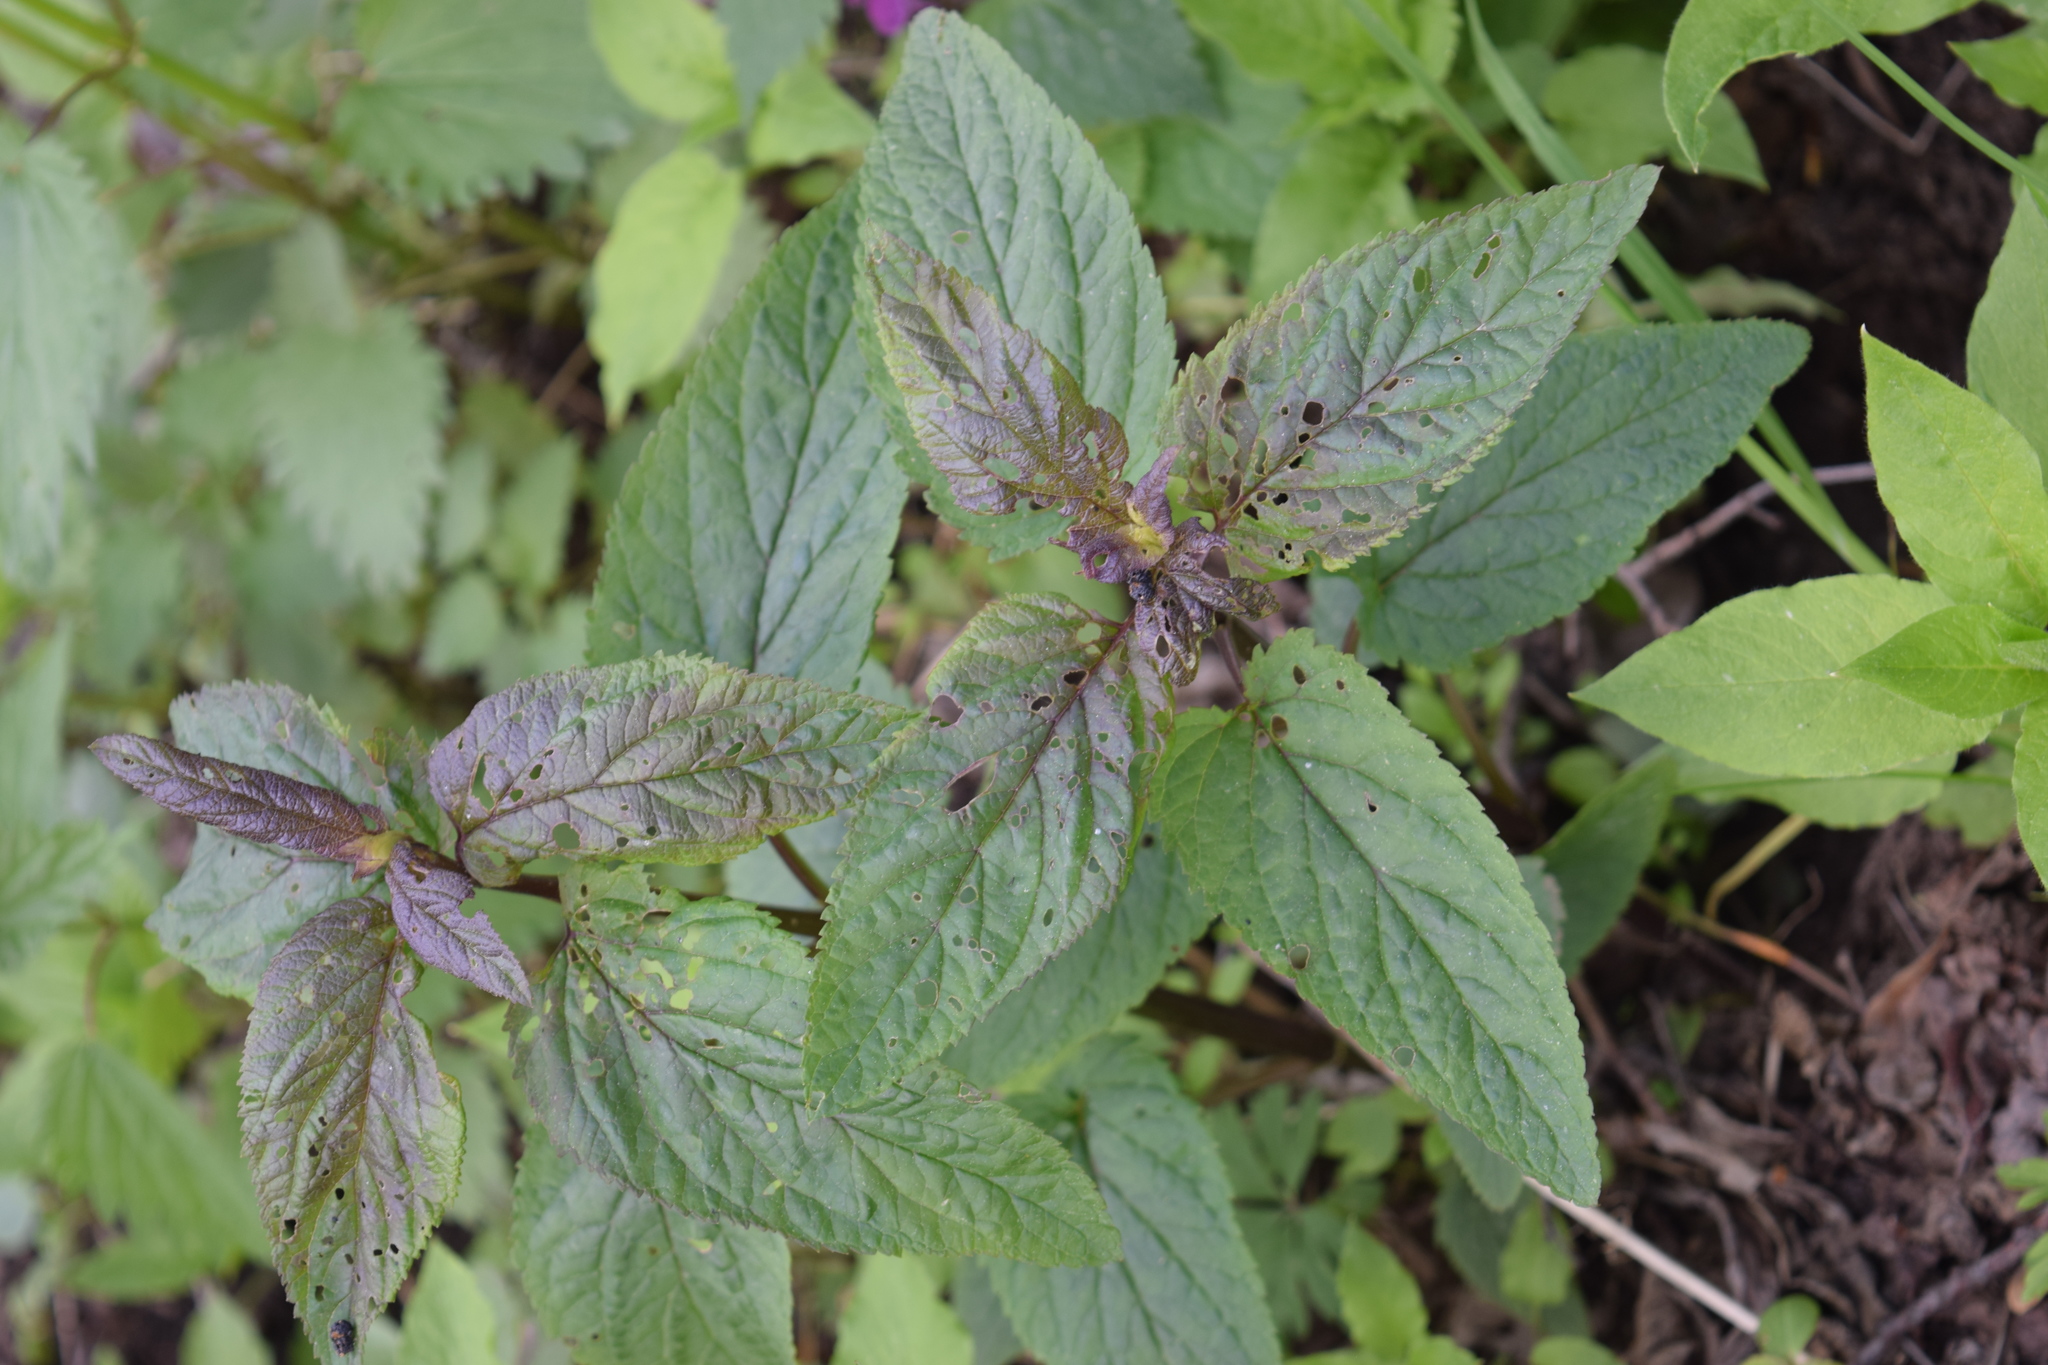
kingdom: Plantae
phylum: Tracheophyta
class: Magnoliopsida
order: Lamiales
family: Scrophulariaceae
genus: Scrophularia
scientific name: Scrophularia nodosa
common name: Common figwort
